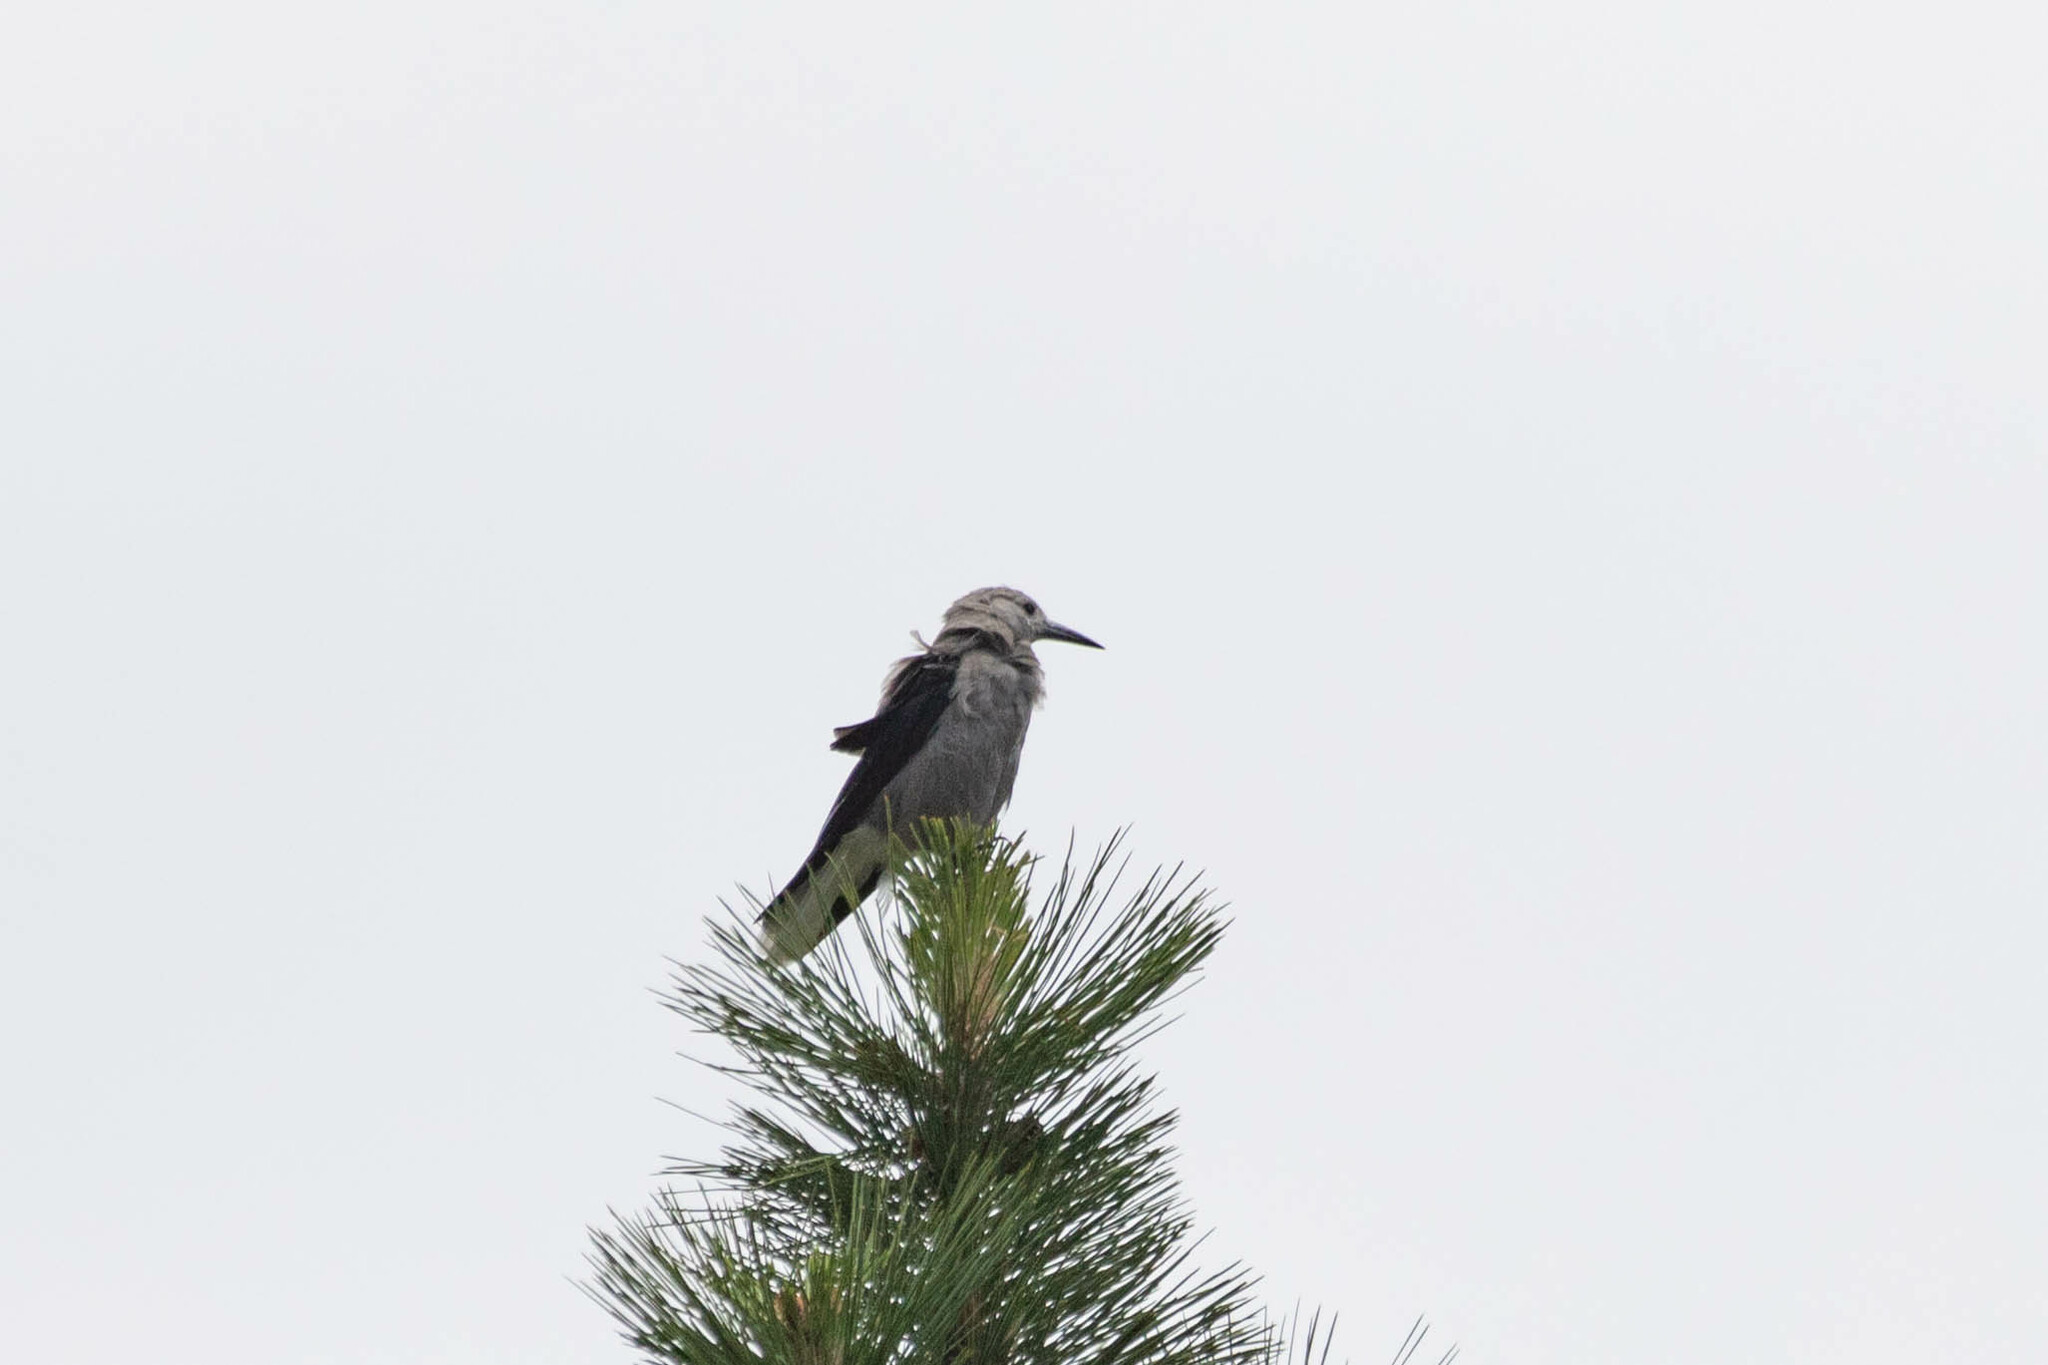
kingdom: Animalia
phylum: Chordata
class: Aves
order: Passeriformes
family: Corvidae
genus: Nucifraga
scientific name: Nucifraga columbiana
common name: Clark's nutcracker
